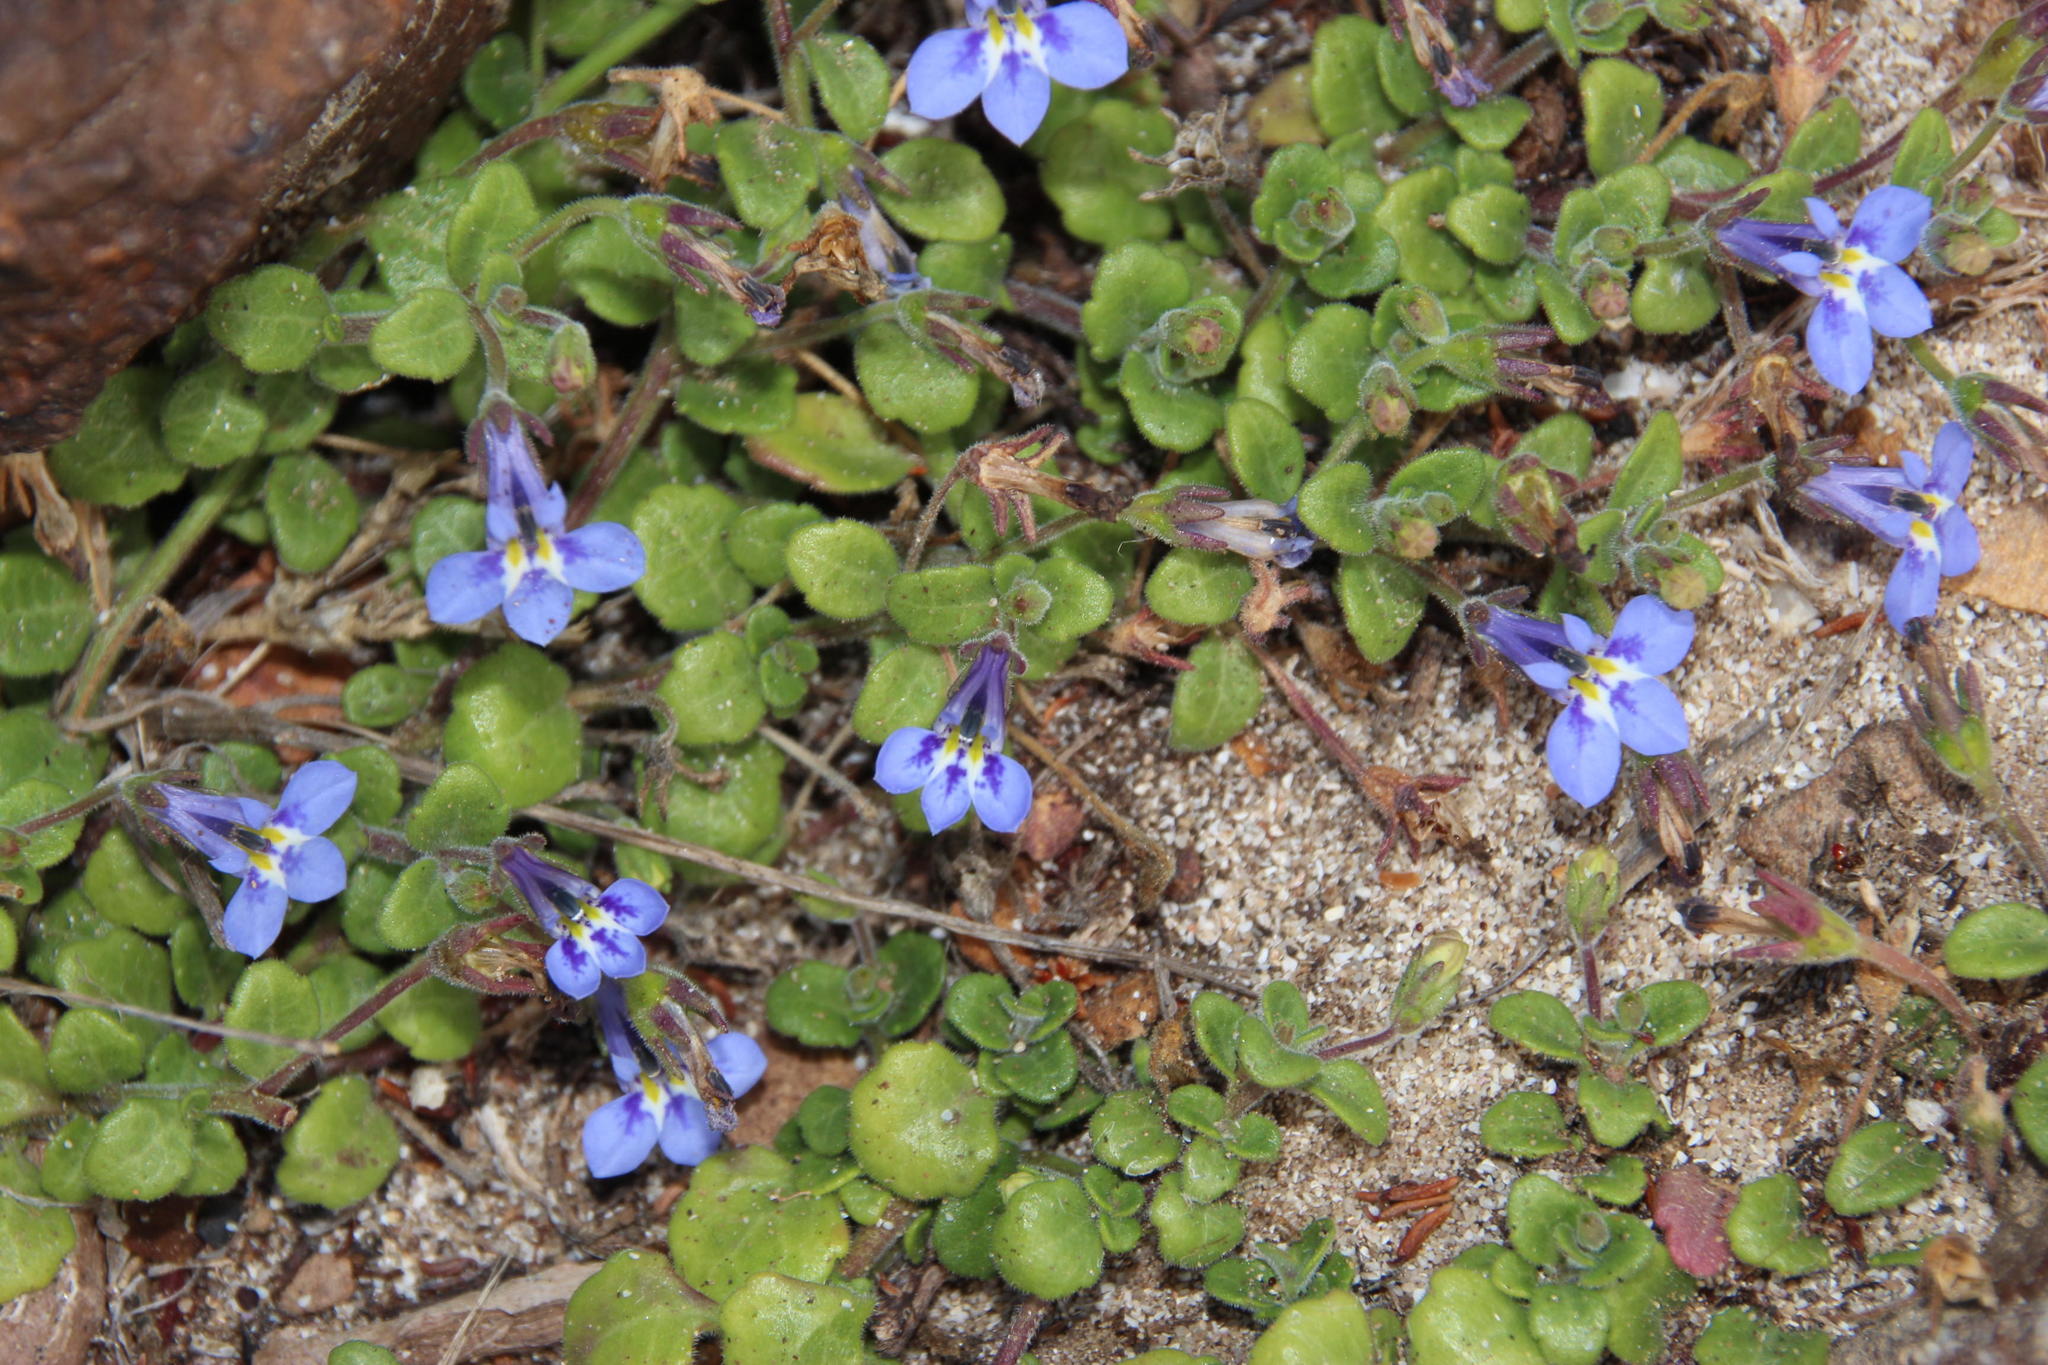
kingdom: Plantae
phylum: Tracheophyta
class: Magnoliopsida
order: Asterales
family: Campanulaceae
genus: Lobelia
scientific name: Lobelia boivinii
